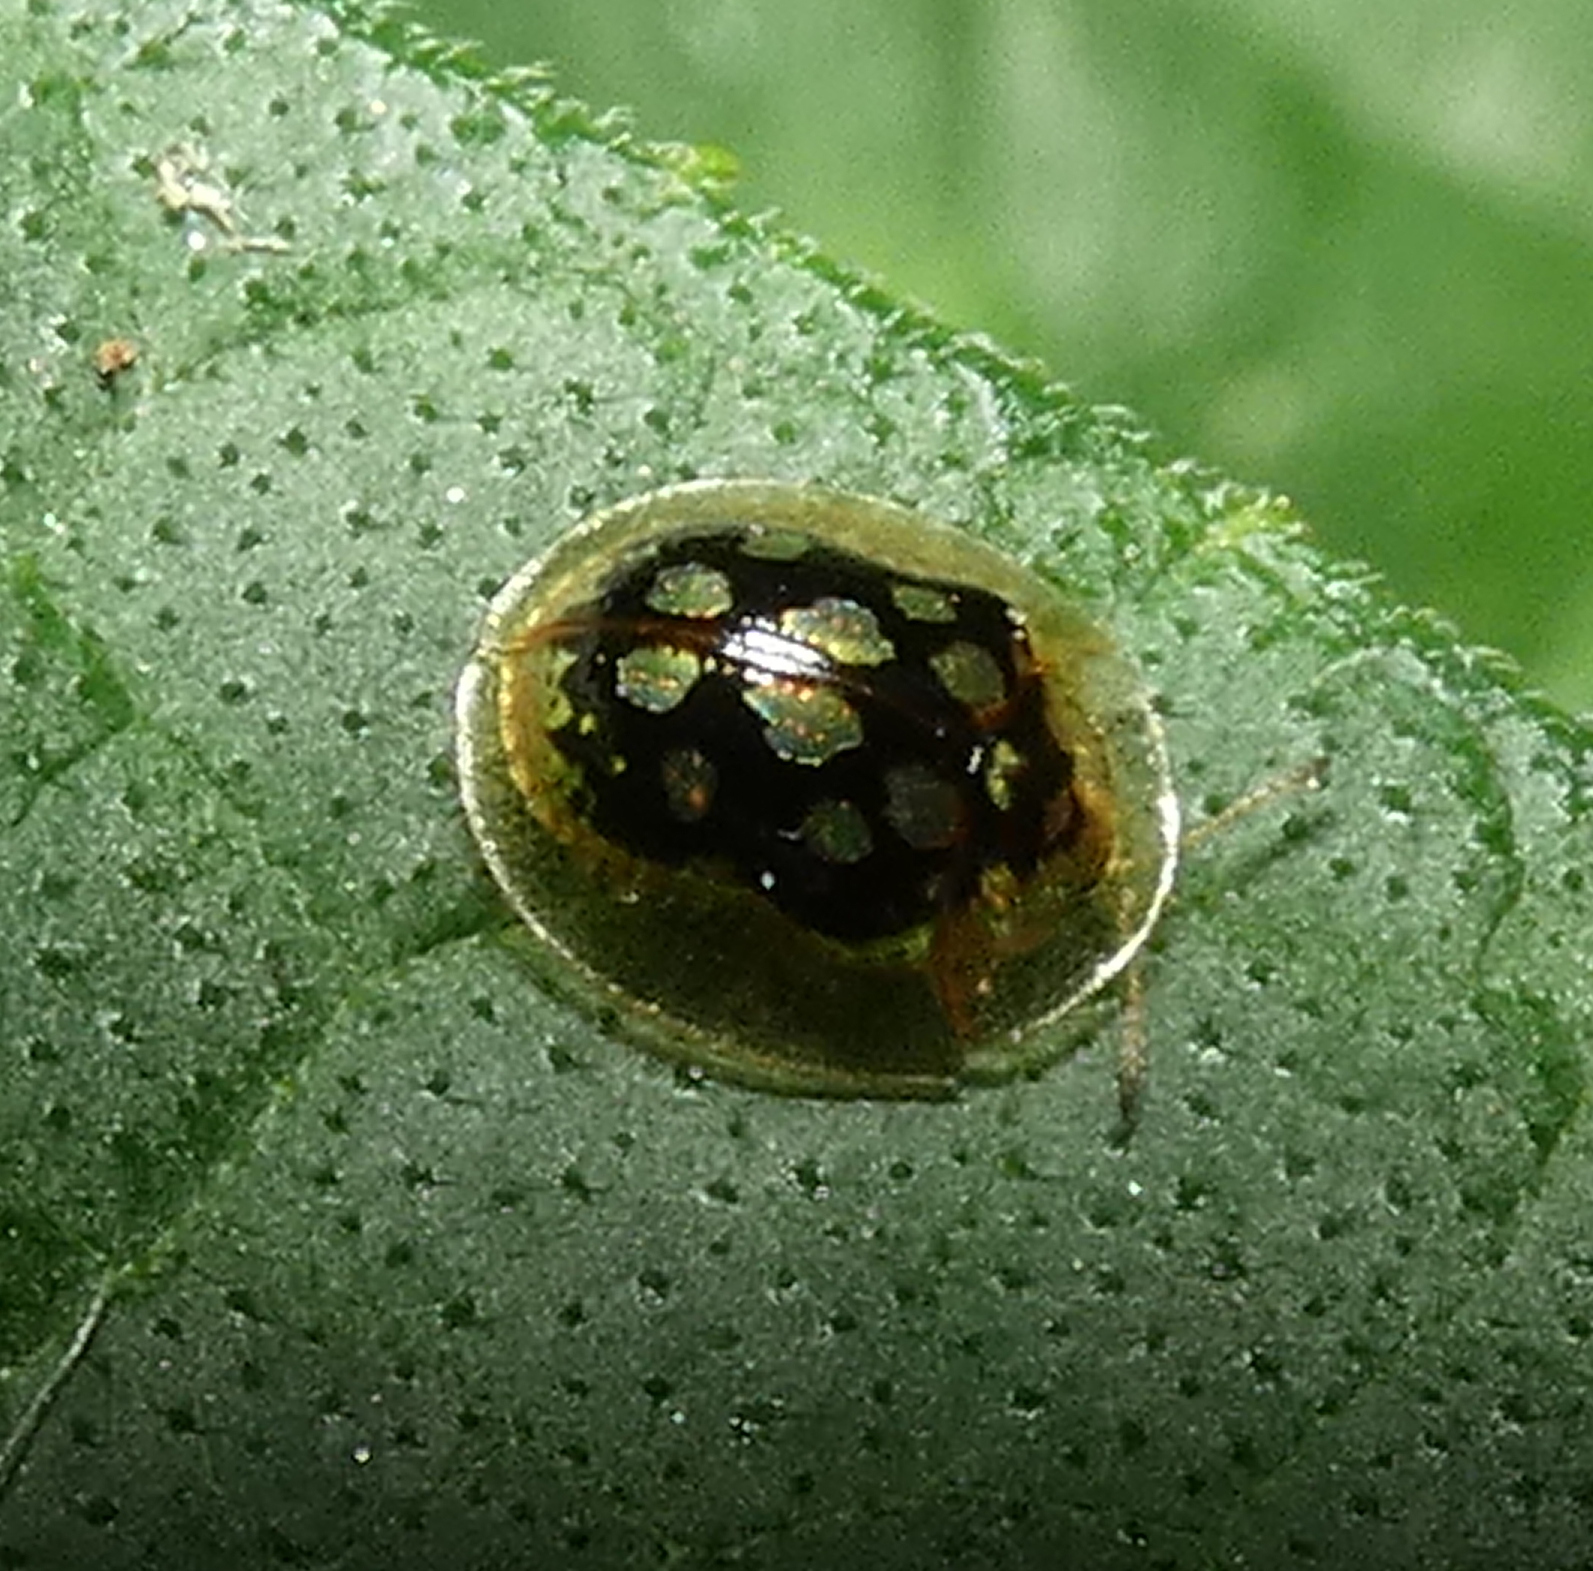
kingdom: Animalia
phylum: Arthropoda
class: Insecta
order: Coleoptera
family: Chrysomelidae
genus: Plagiometriona
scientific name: Plagiometriona microcera
